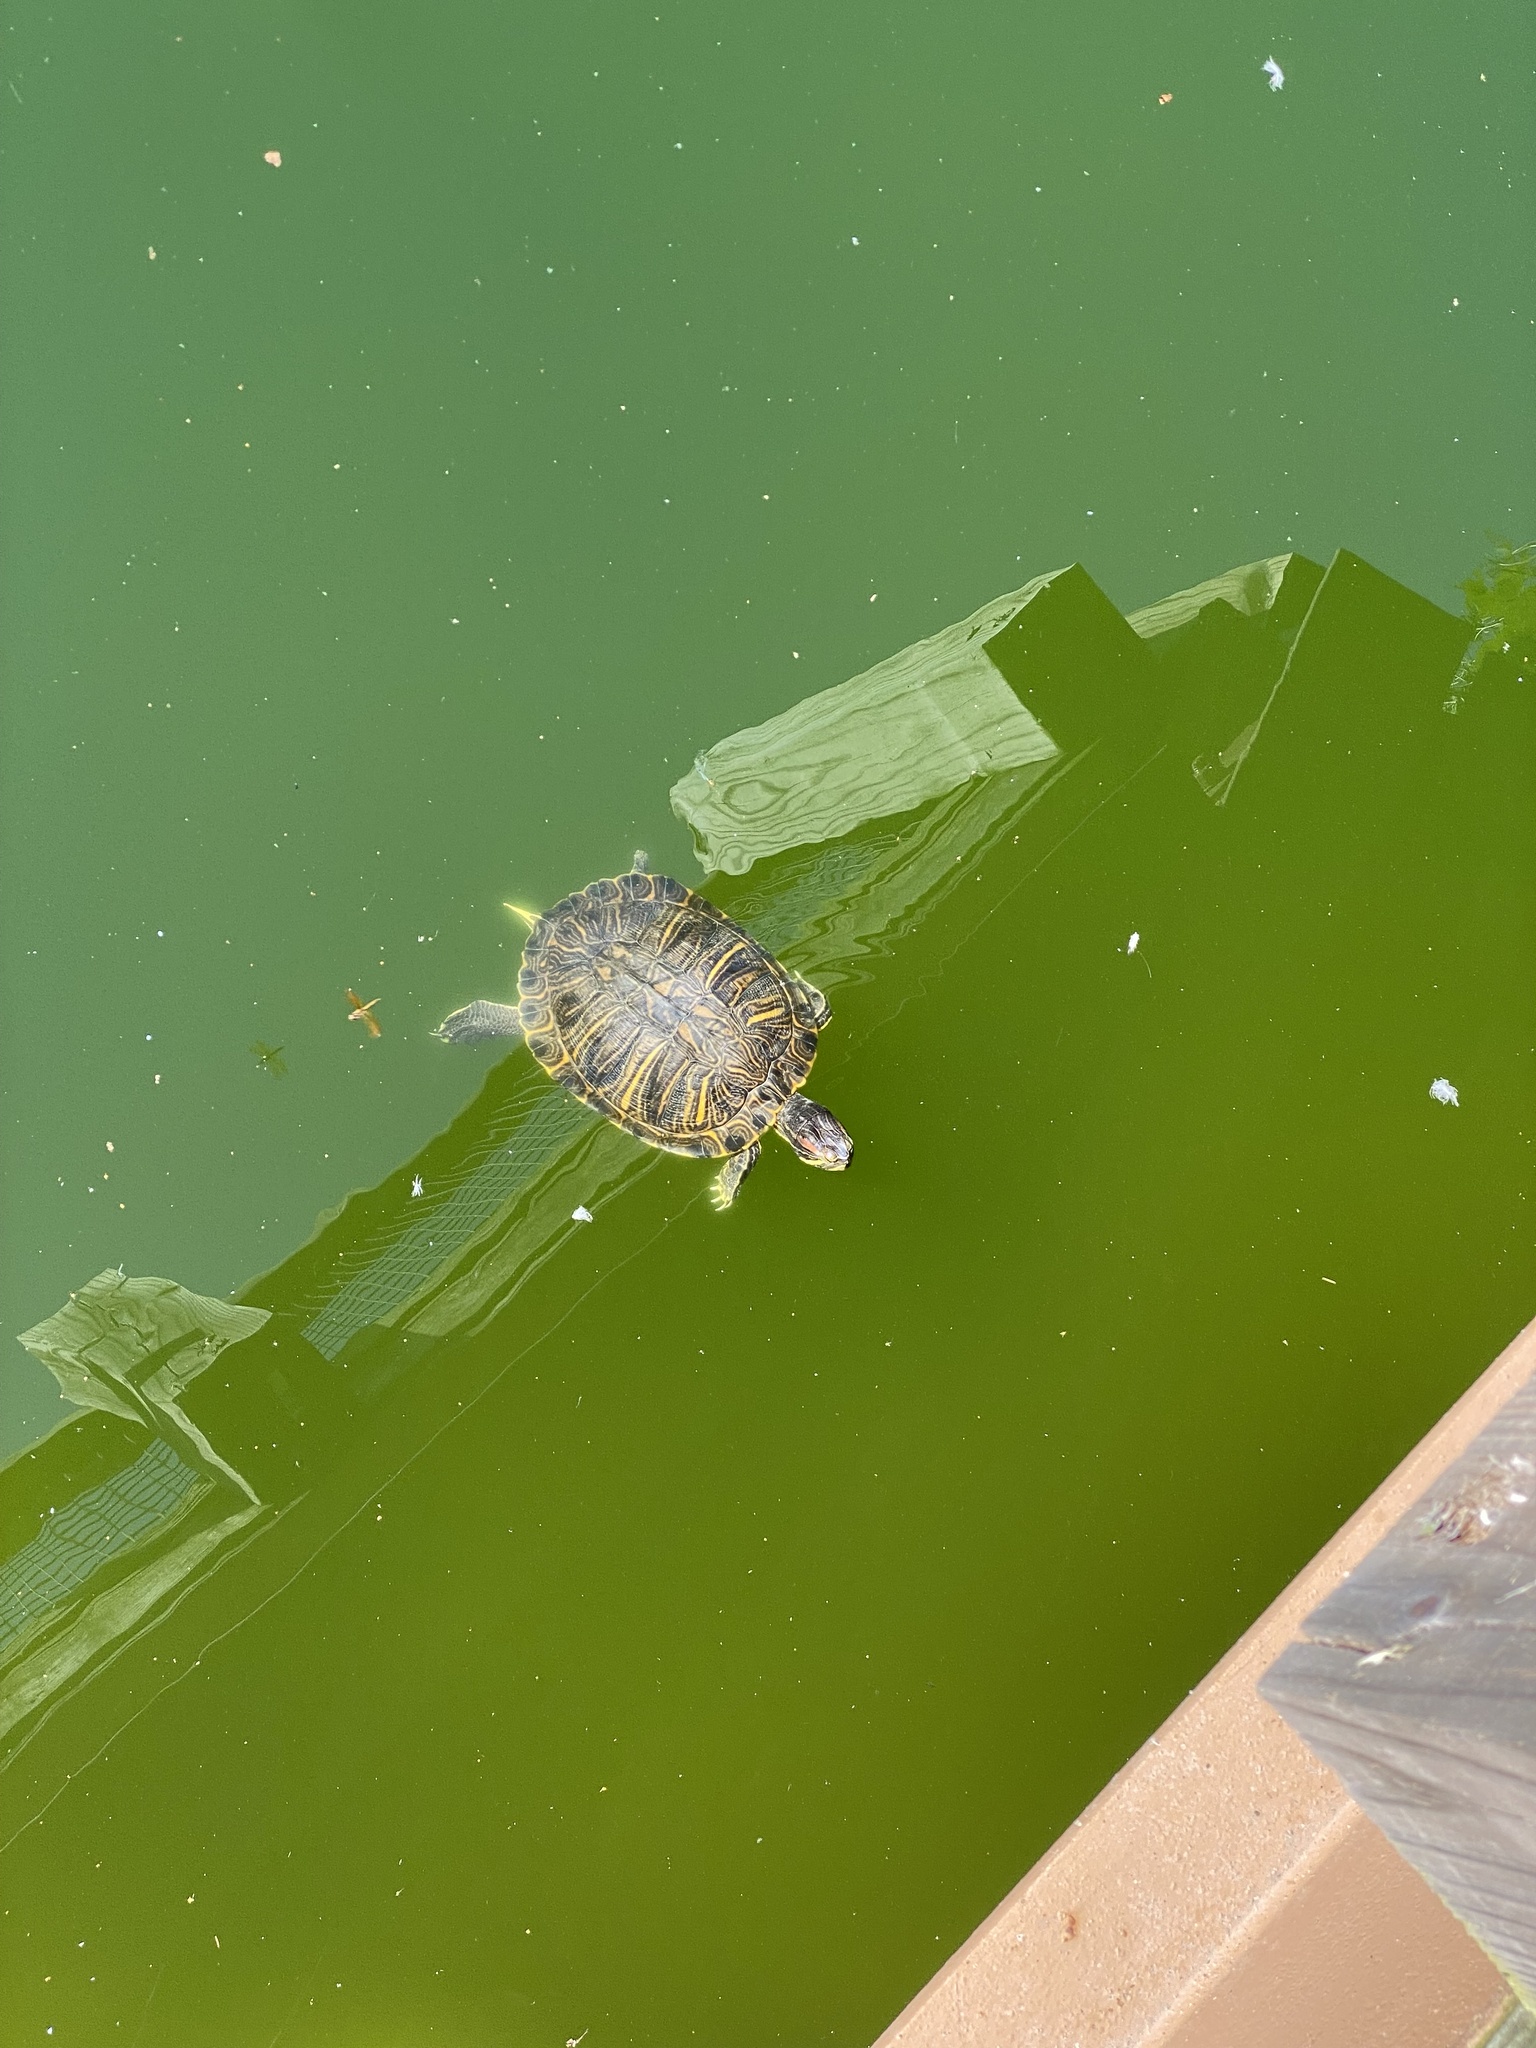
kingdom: Animalia
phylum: Chordata
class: Testudines
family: Emydidae
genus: Trachemys
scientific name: Trachemys scripta
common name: Slider
